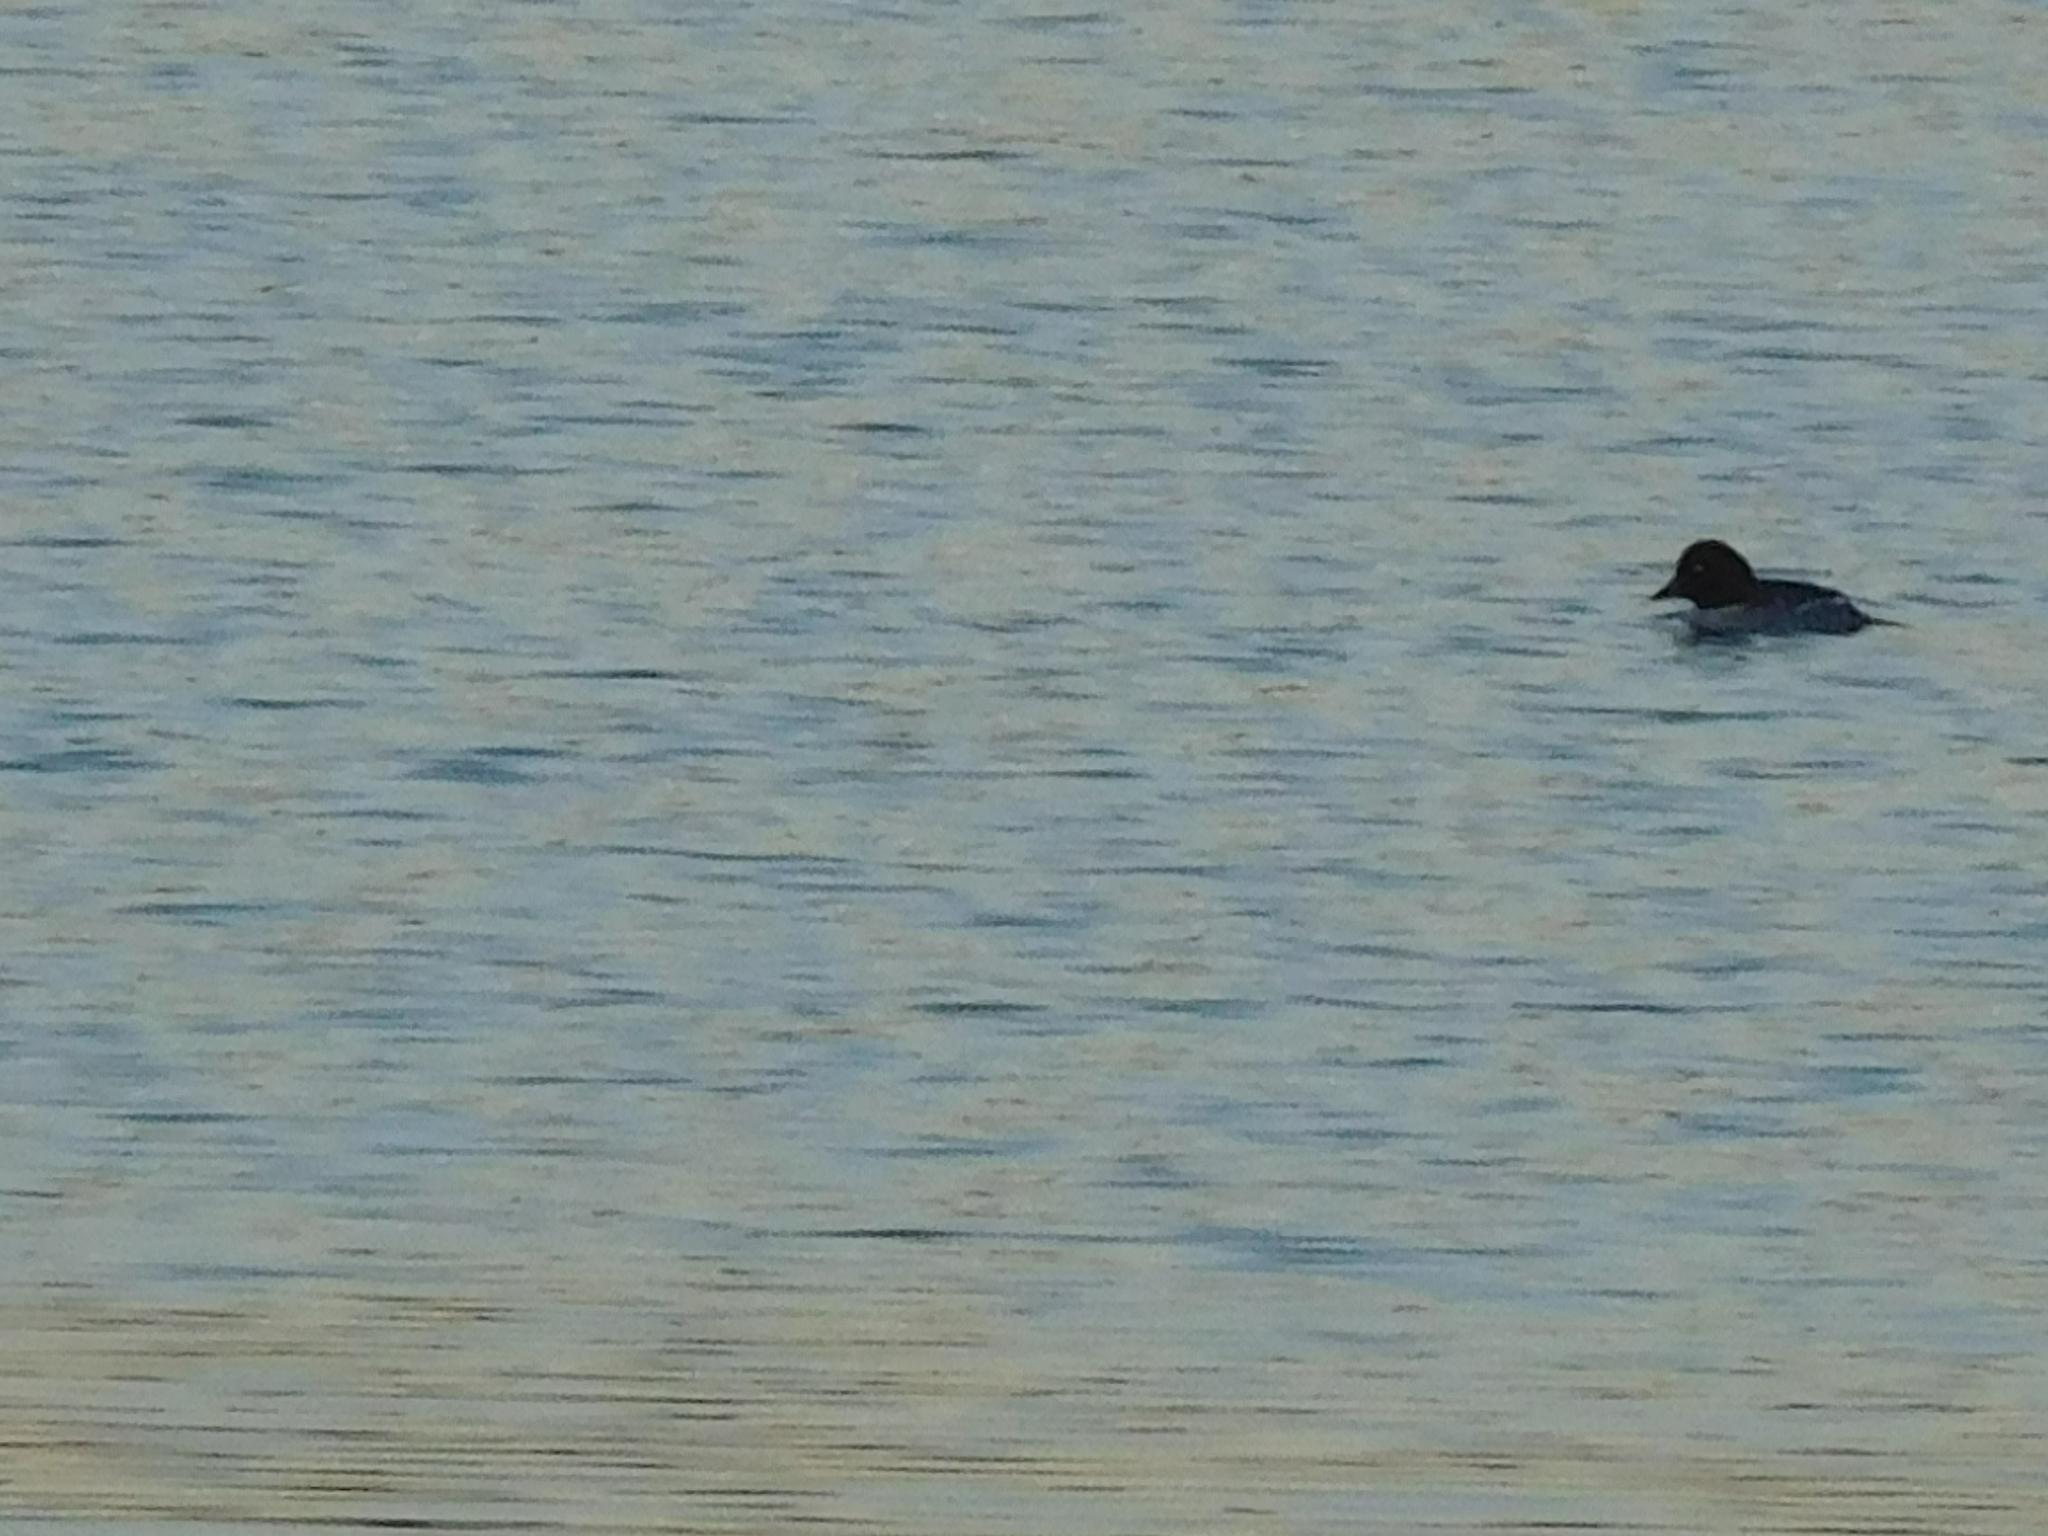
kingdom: Animalia
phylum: Chordata
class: Aves
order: Anseriformes
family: Anatidae
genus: Bucephala
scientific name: Bucephala clangula
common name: Common goldeneye
